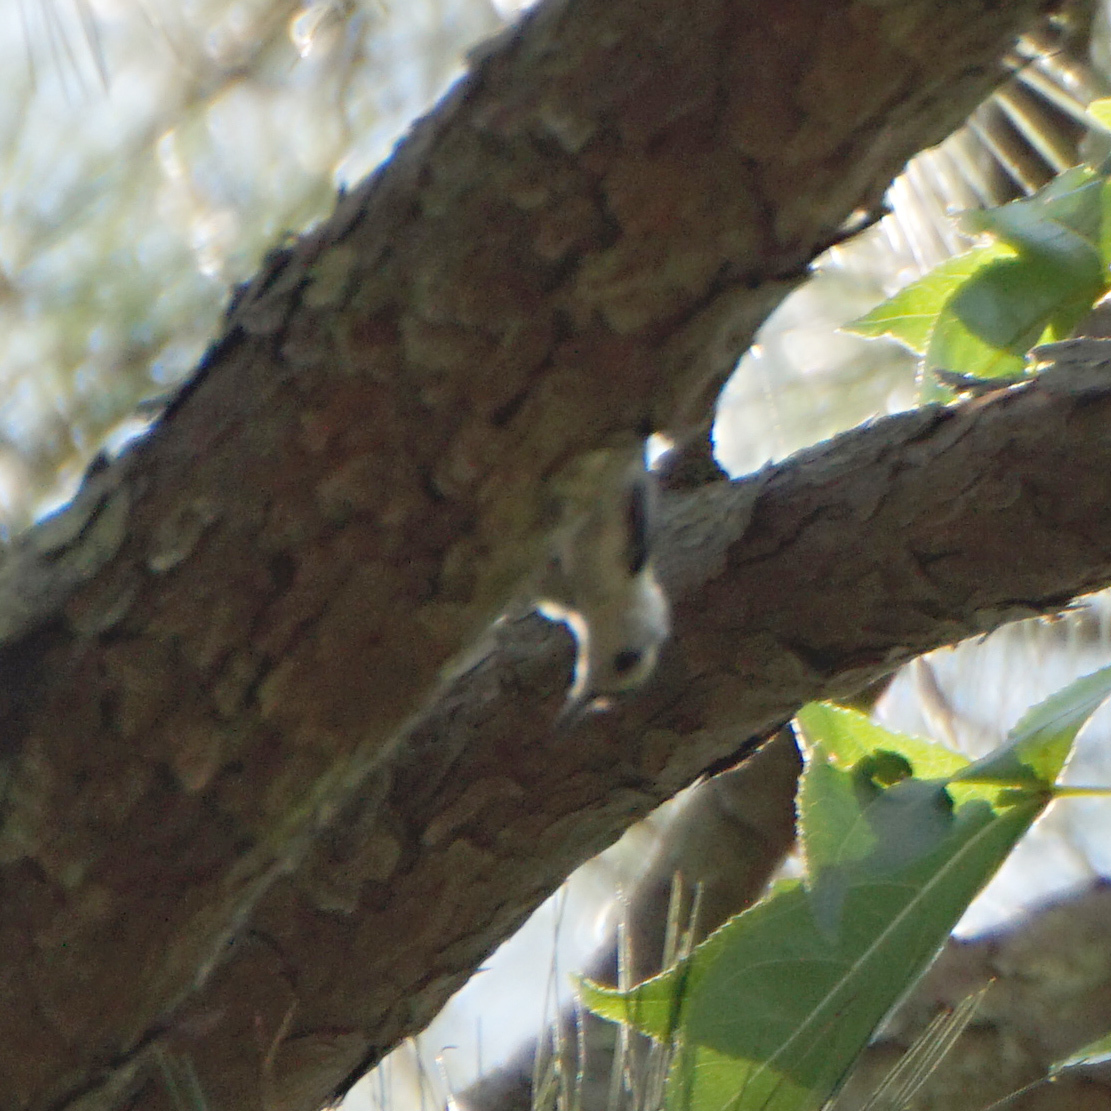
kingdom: Animalia
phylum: Chordata
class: Aves
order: Passeriformes
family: Sittidae
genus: Sitta
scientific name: Sitta carolinensis
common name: White-breasted nuthatch
